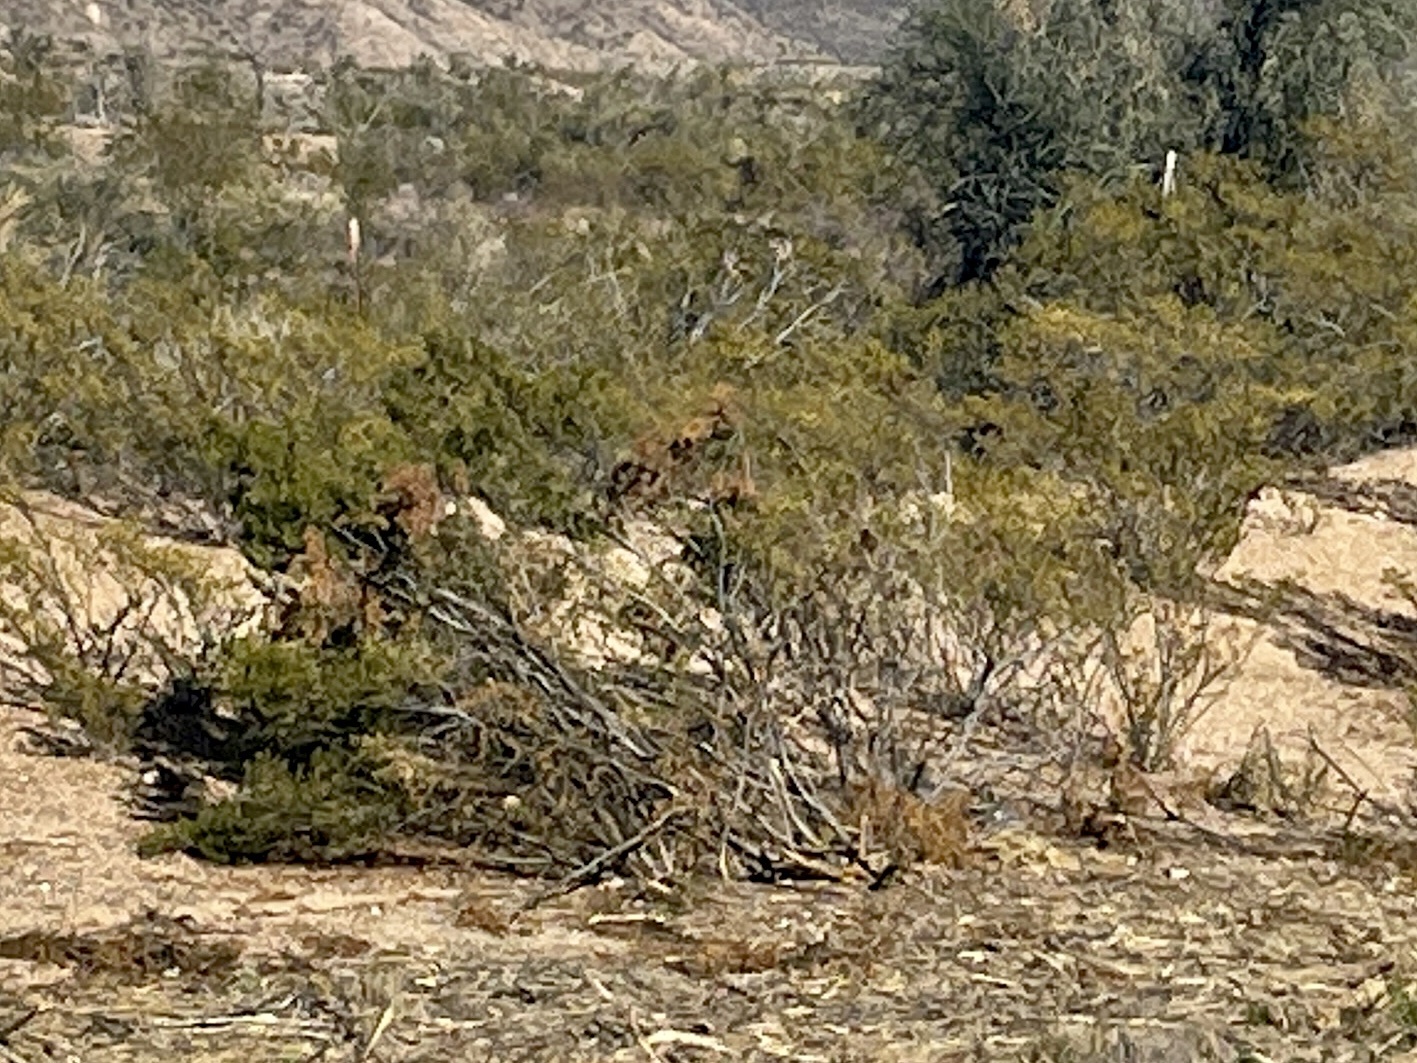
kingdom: Plantae
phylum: Tracheophyta
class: Magnoliopsida
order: Zygophyllales
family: Zygophyllaceae
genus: Larrea
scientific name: Larrea tridentata
